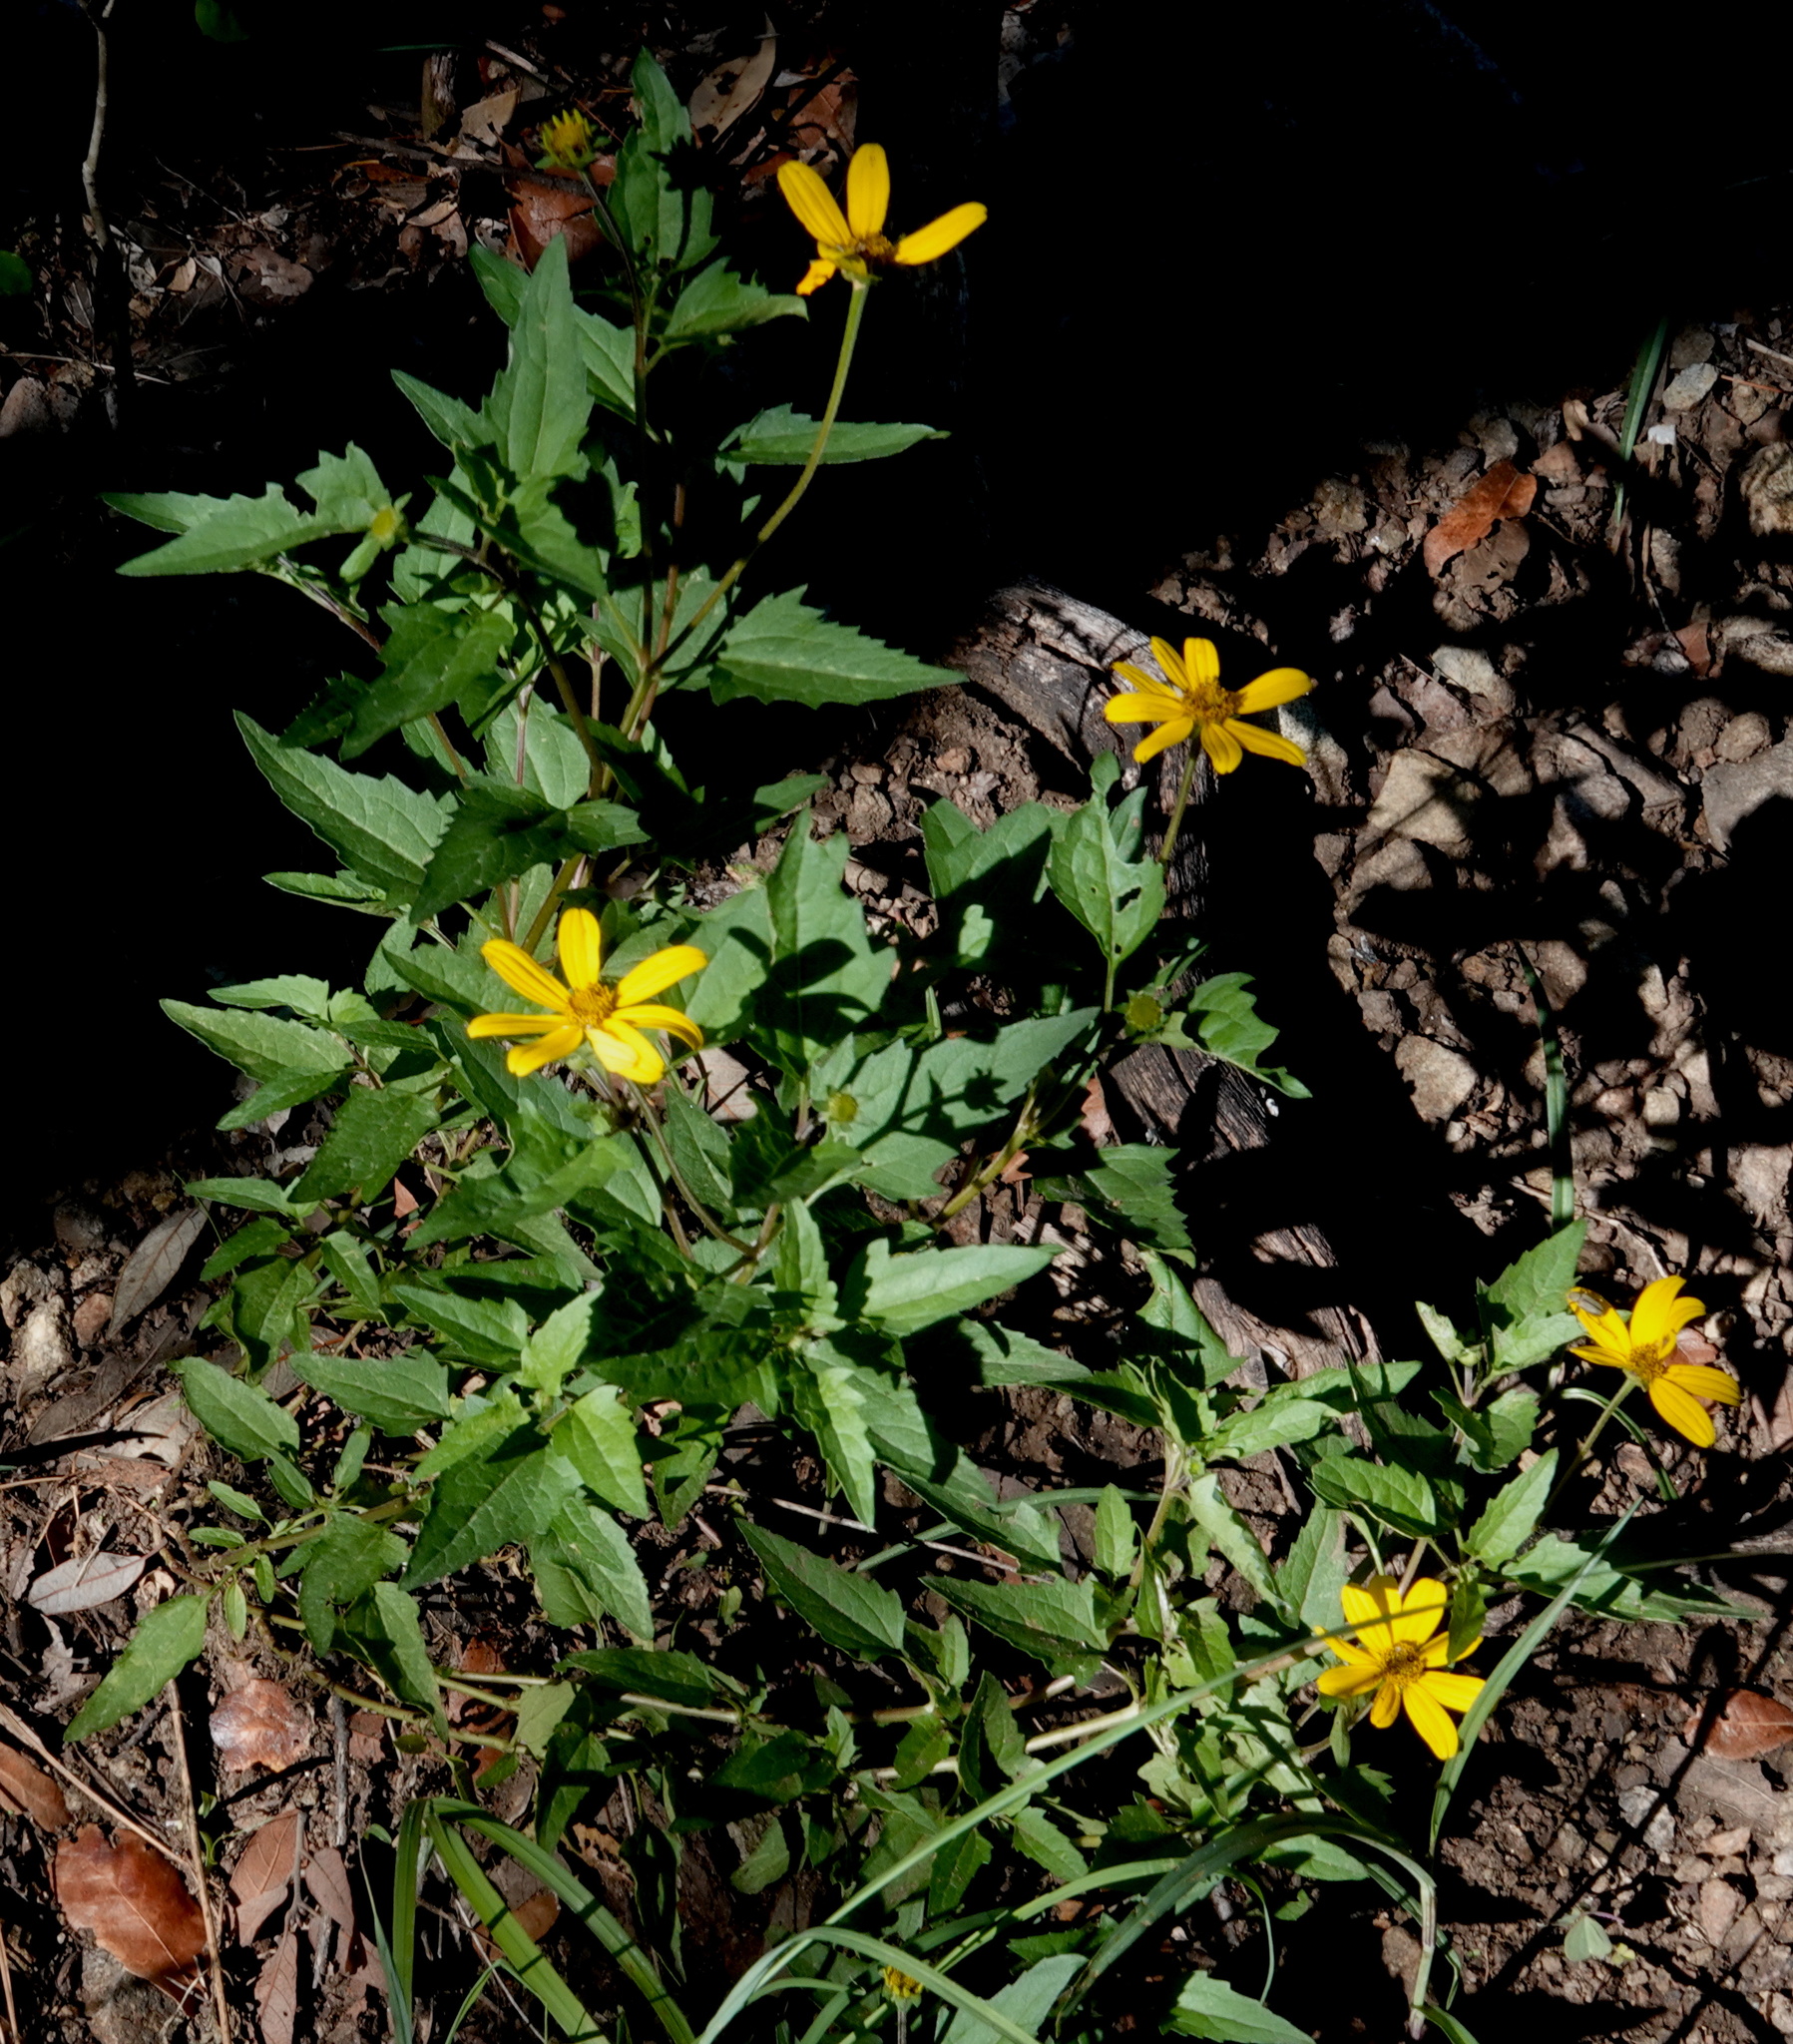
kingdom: Plantae
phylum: Tracheophyta
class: Magnoliopsida
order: Asterales
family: Asteraceae
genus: Heliopsis
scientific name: Heliopsis parvifolia
